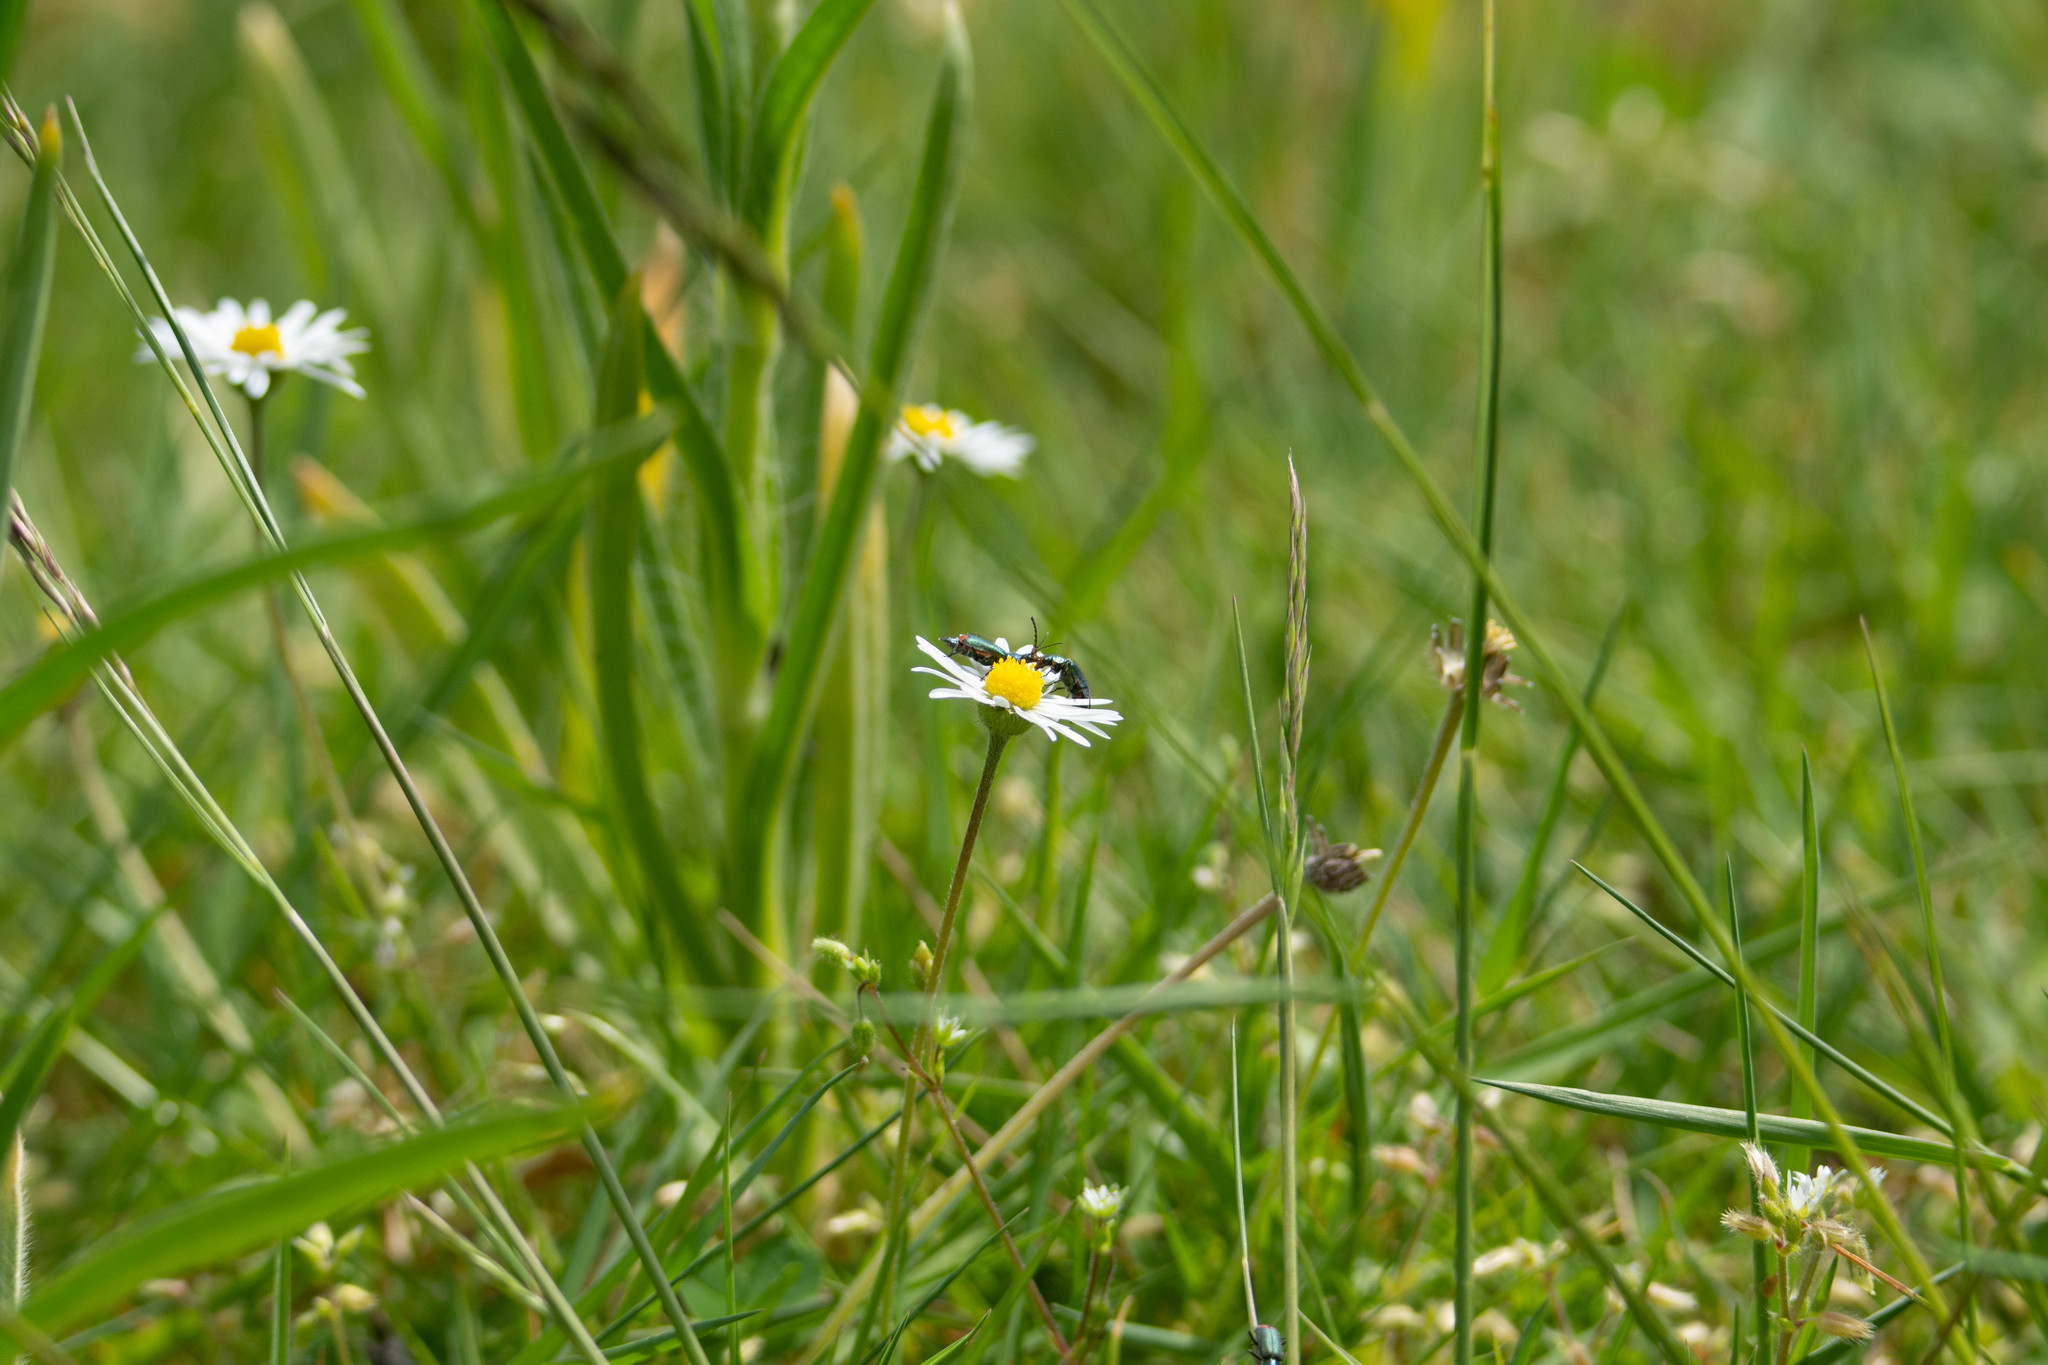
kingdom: Animalia
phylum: Arthropoda
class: Insecta
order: Coleoptera
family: Melyridae
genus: Malachius
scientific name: Malachius bipustulatus
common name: Malachite beetle
